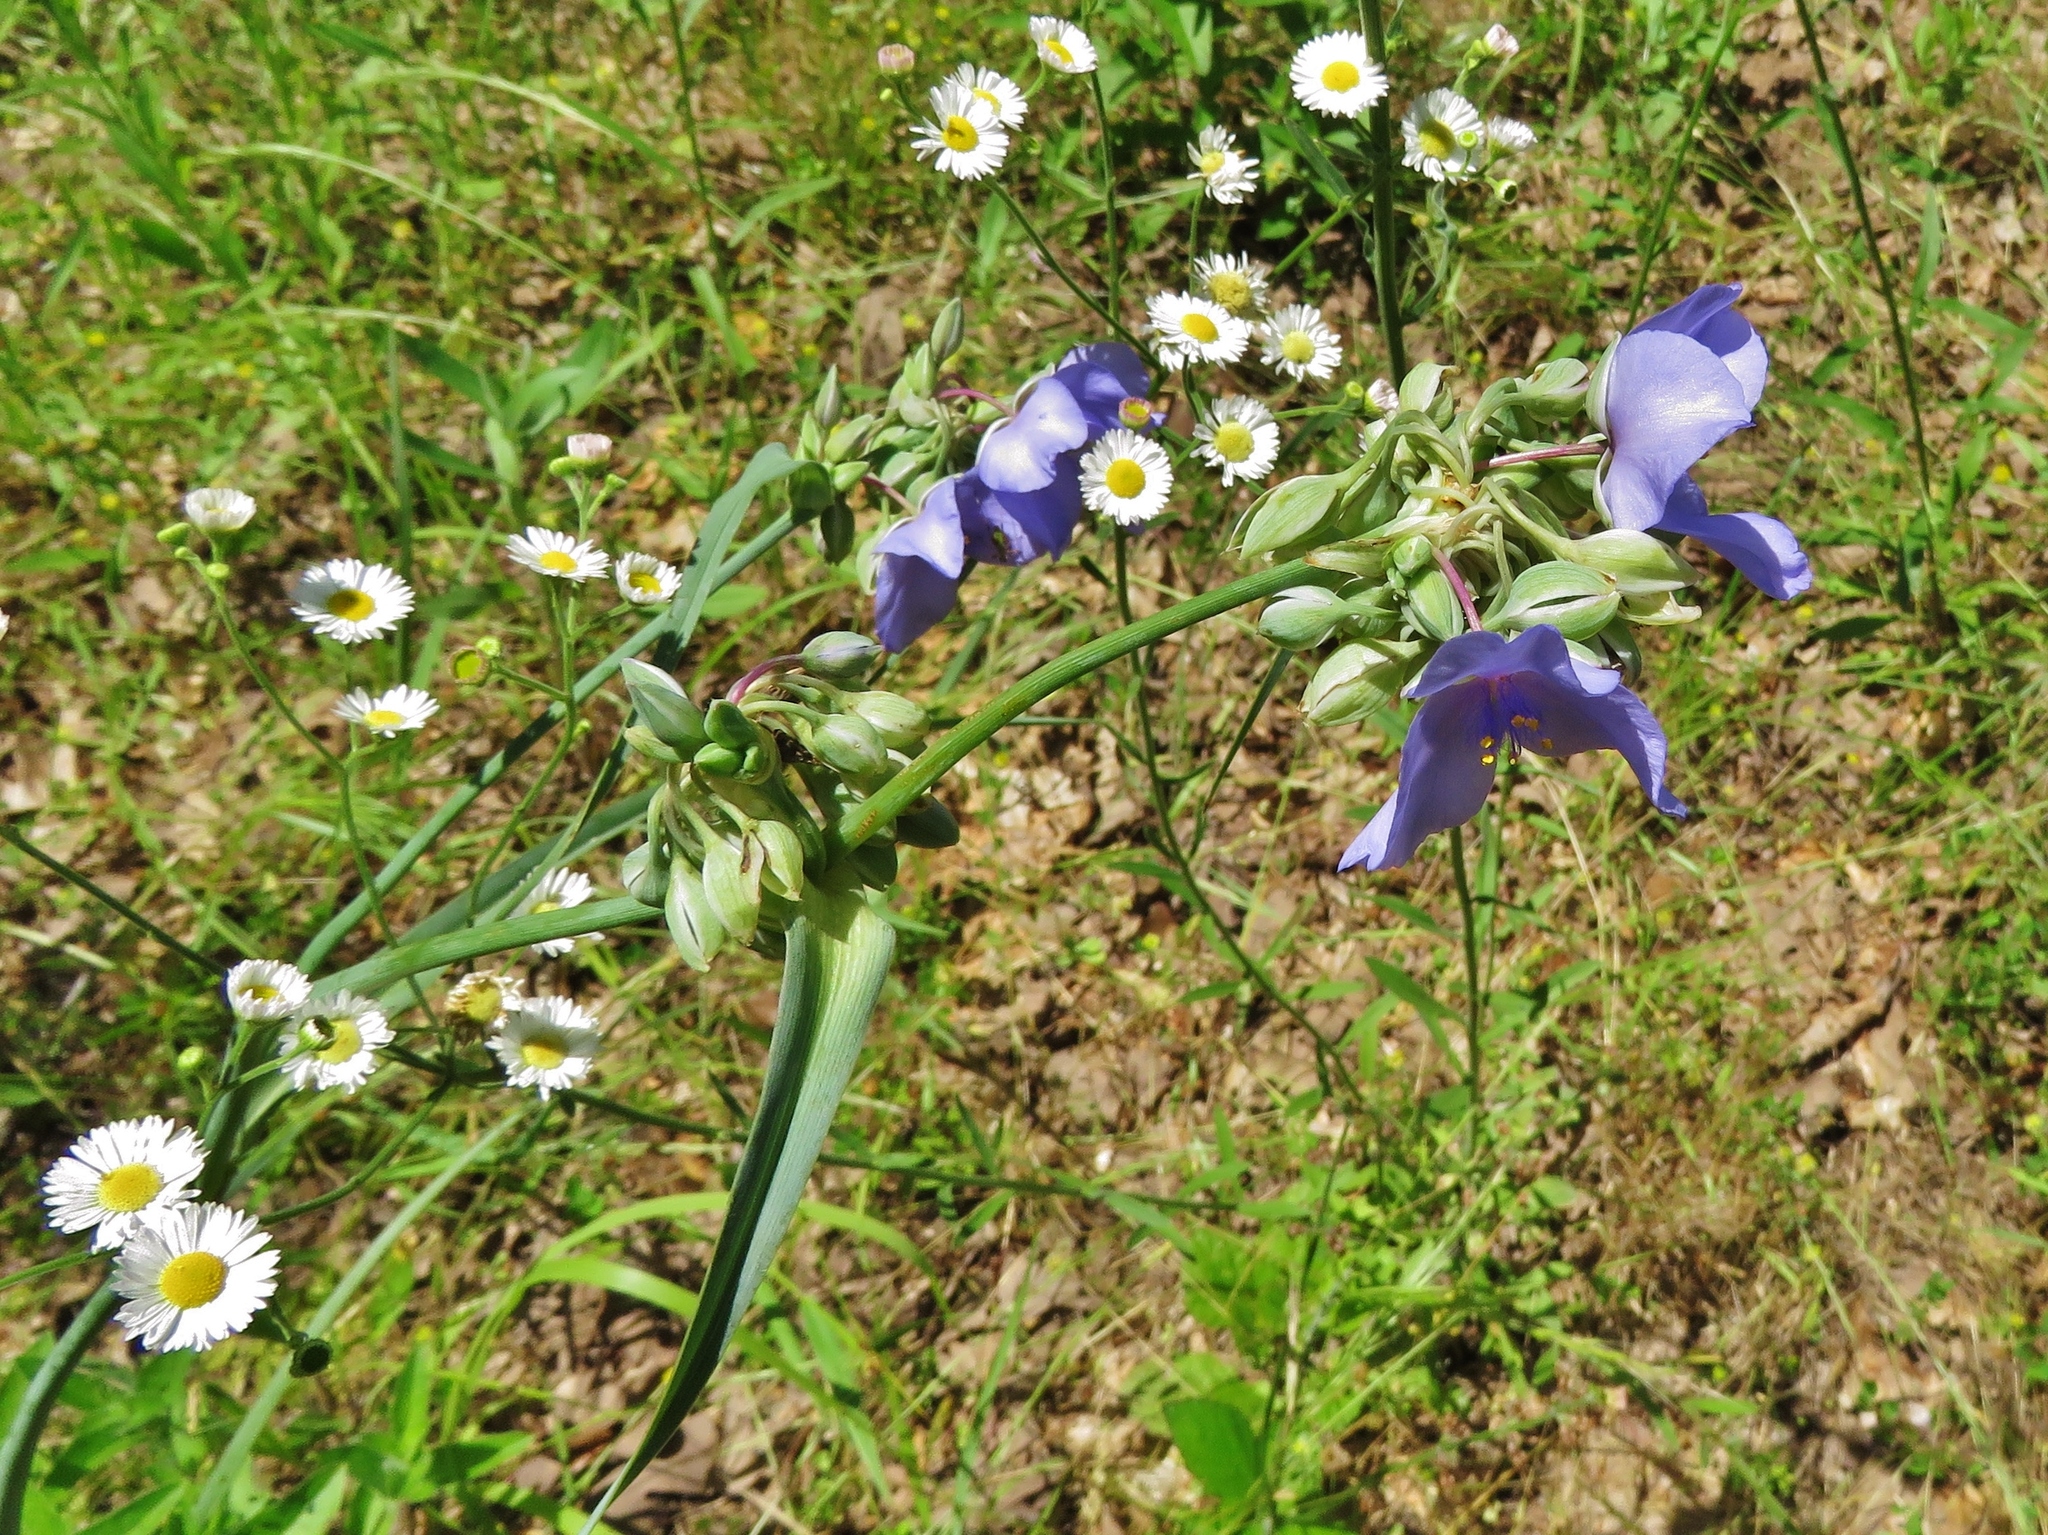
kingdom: Plantae
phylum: Tracheophyta
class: Liliopsida
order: Commelinales
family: Commelinaceae
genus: Tradescantia
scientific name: Tradescantia ohiensis
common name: Ohio spiderwort
